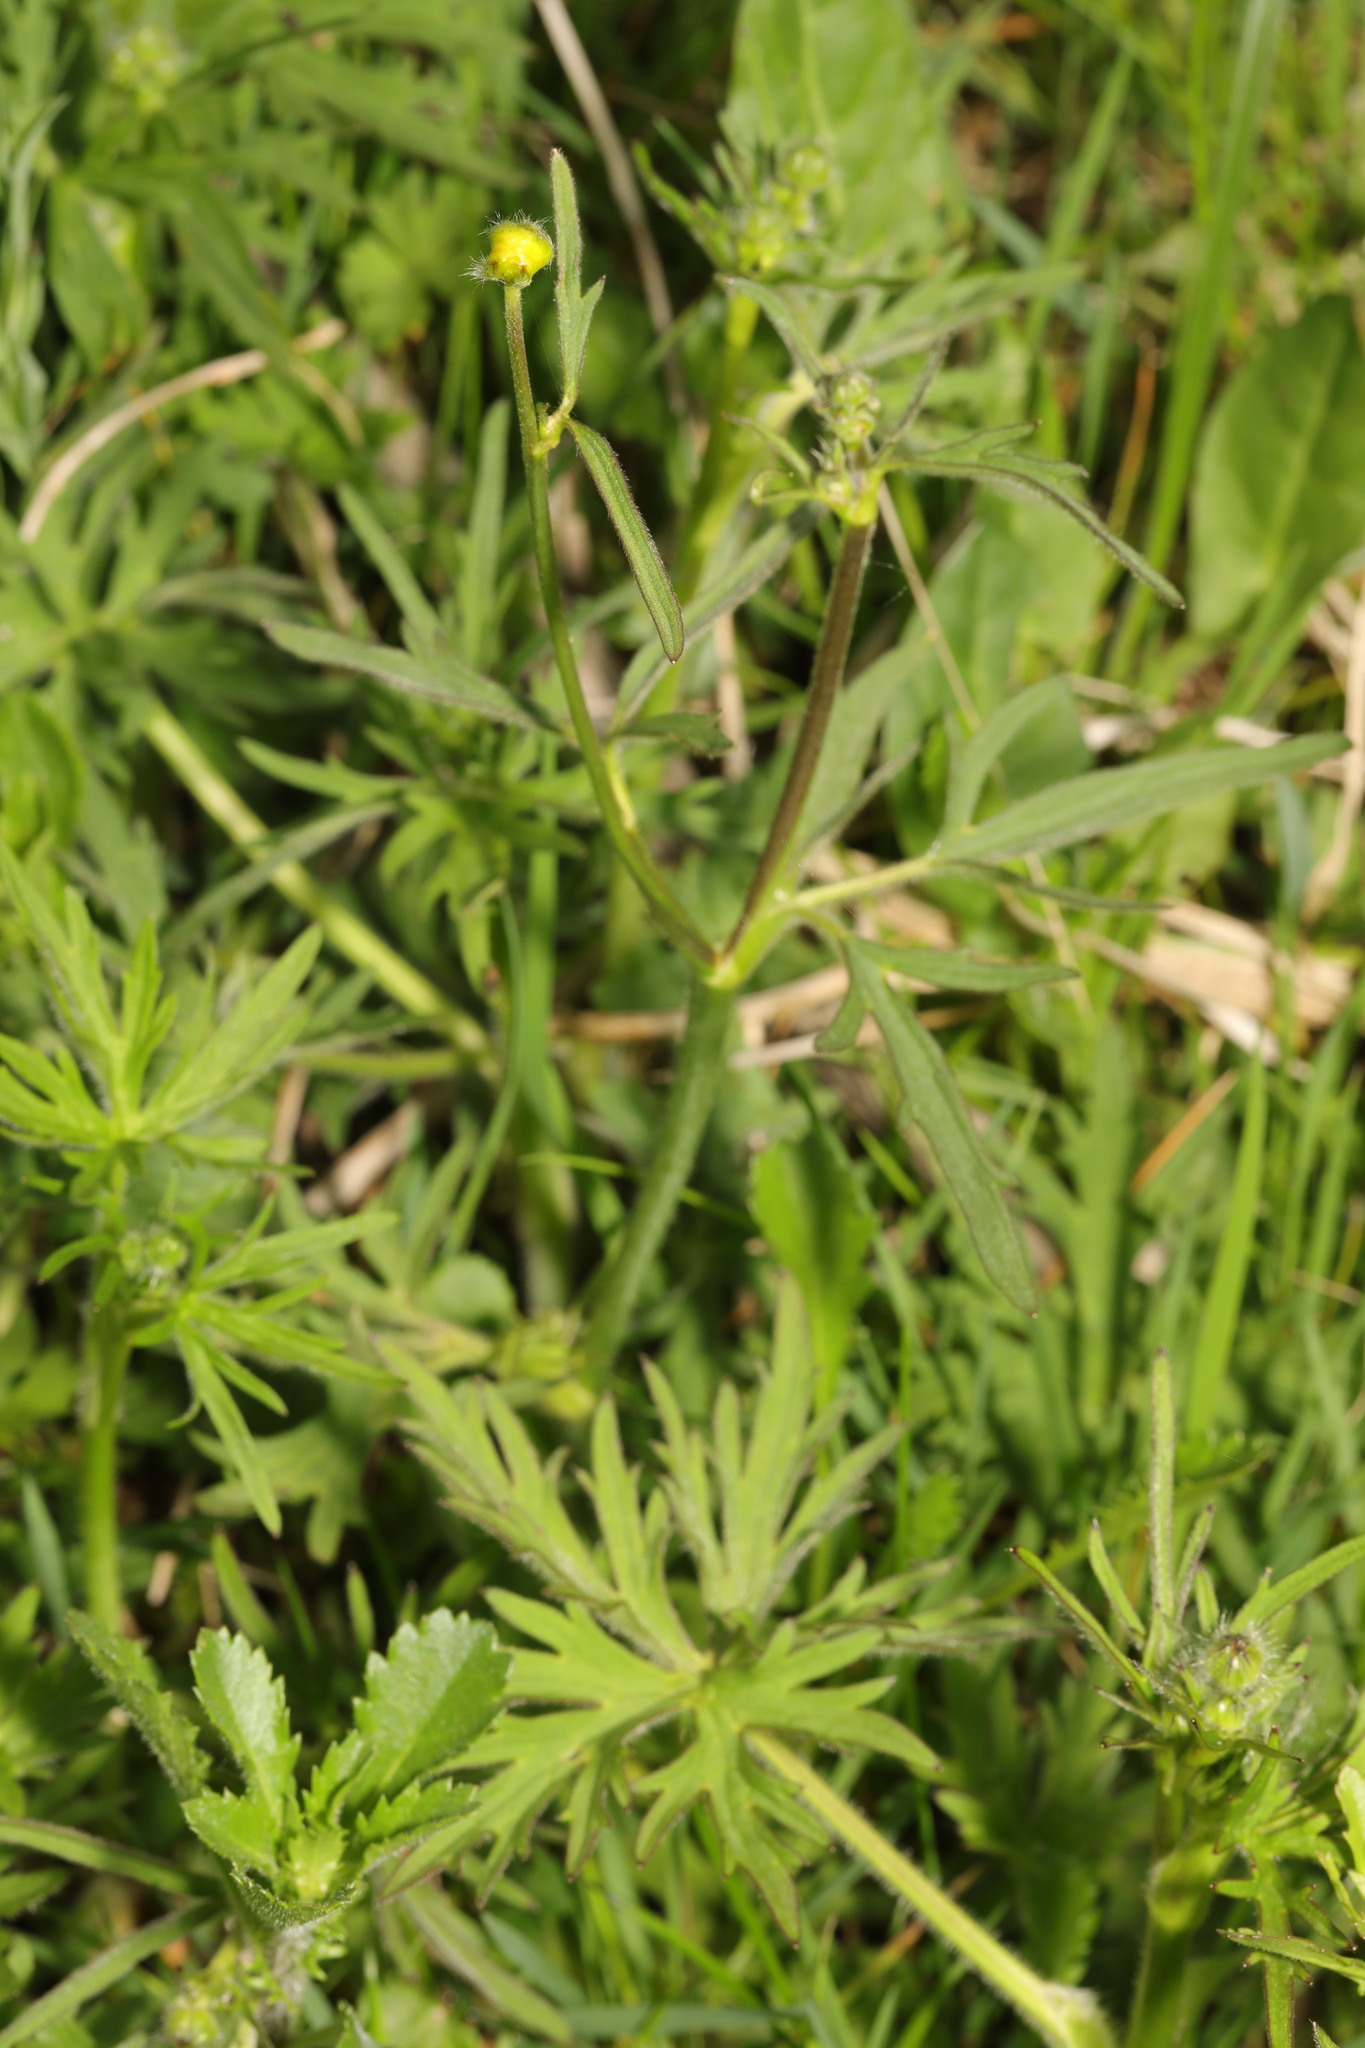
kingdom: Plantae
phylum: Tracheophyta
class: Magnoliopsida
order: Ranunculales
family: Ranunculaceae
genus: Ranunculus
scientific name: Ranunculus acris
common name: Meadow buttercup
